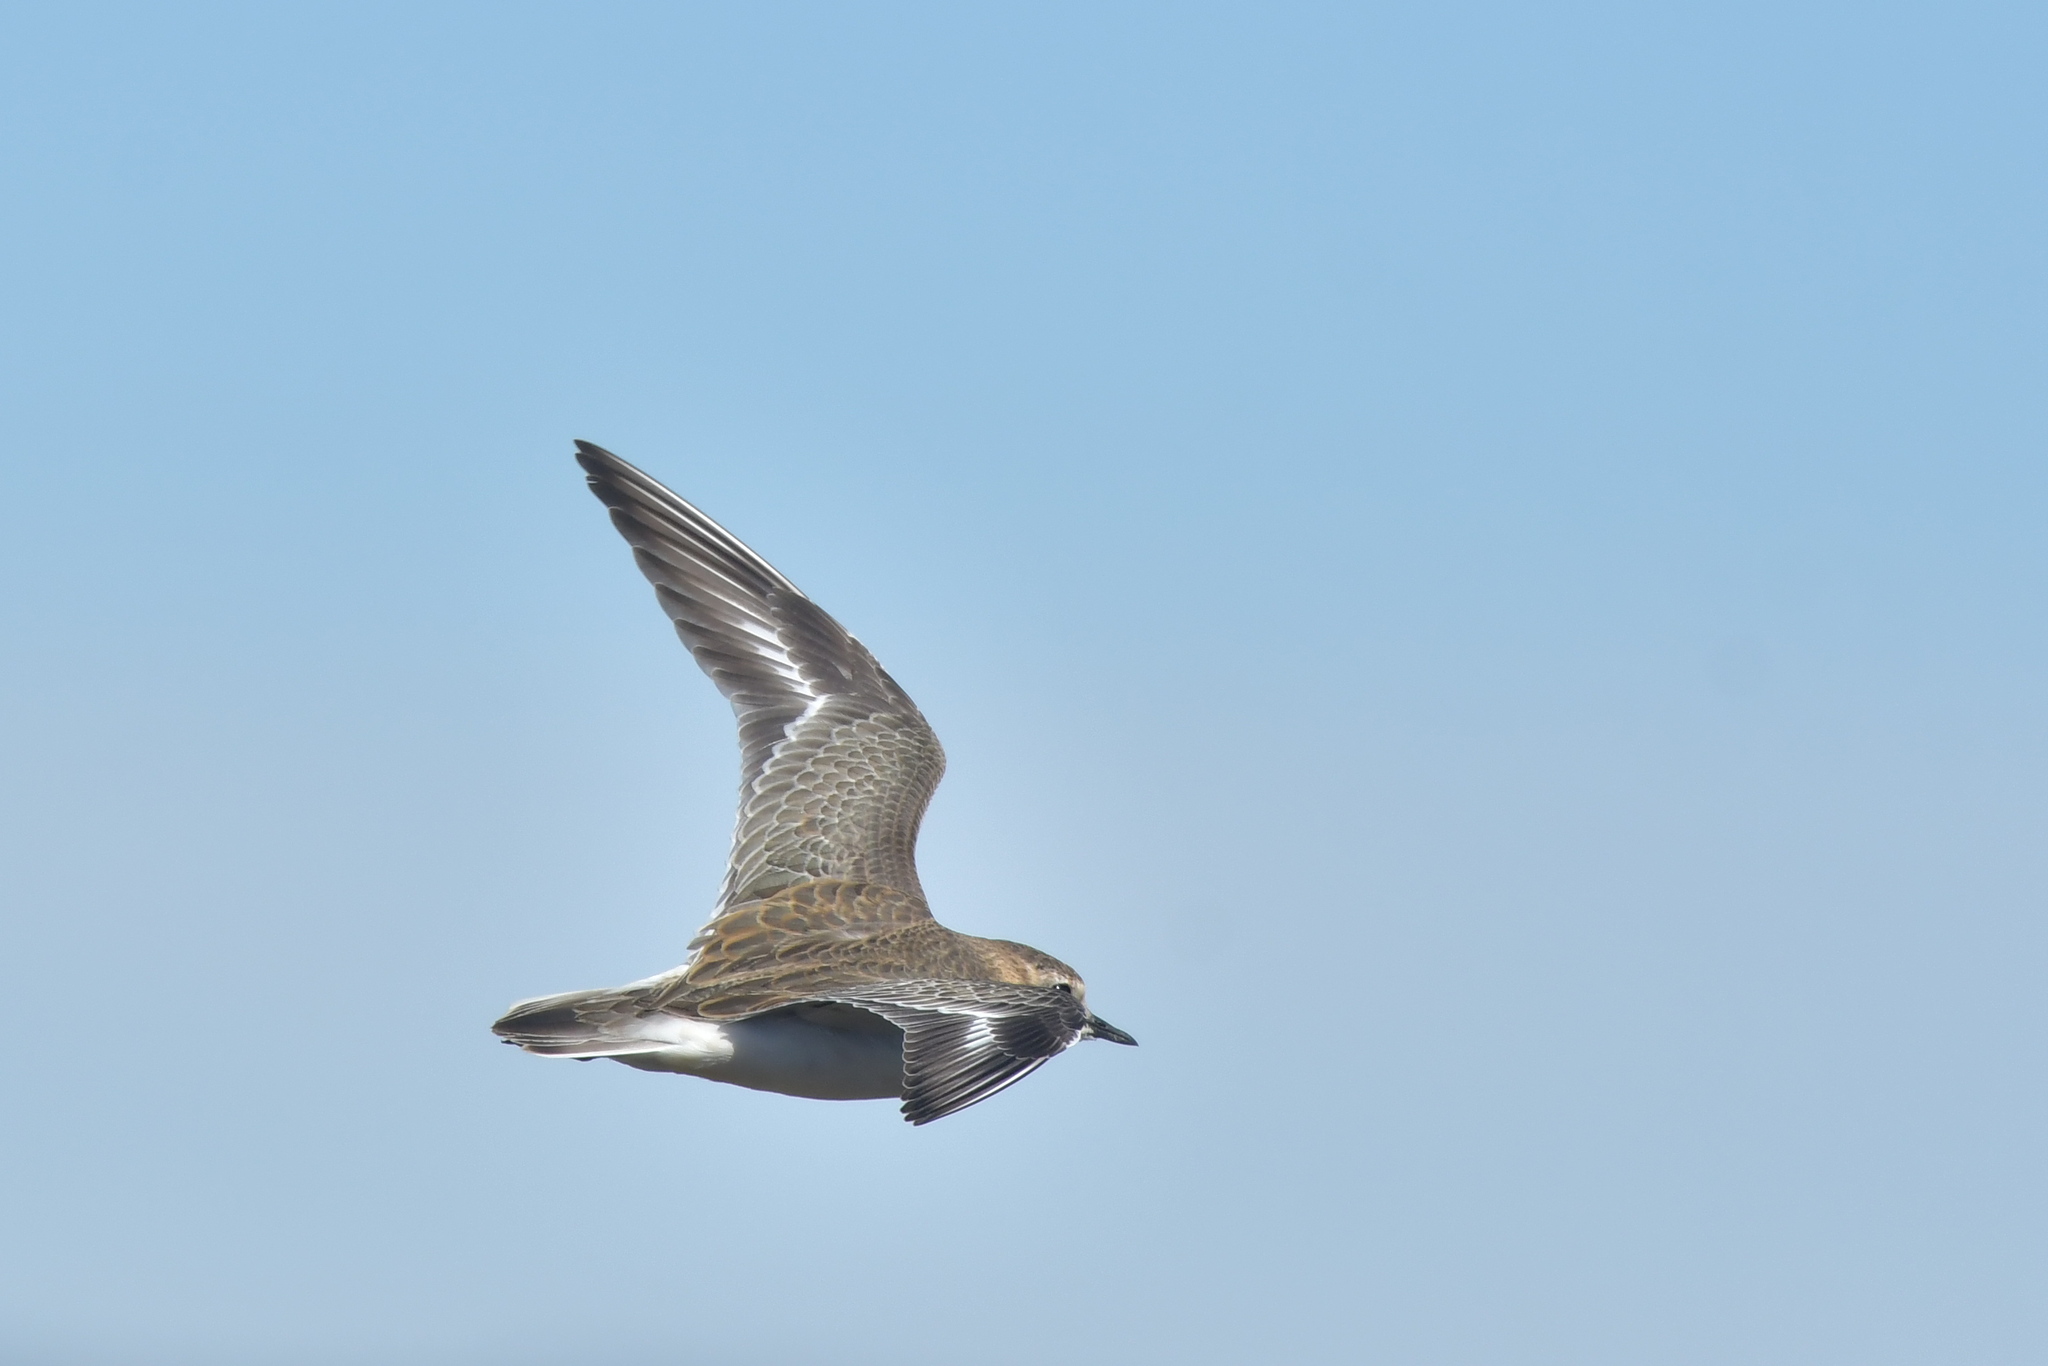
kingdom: Animalia
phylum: Chordata
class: Aves
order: Charadriiformes
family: Charadriidae
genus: Anarhynchus
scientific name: Anarhynchus
